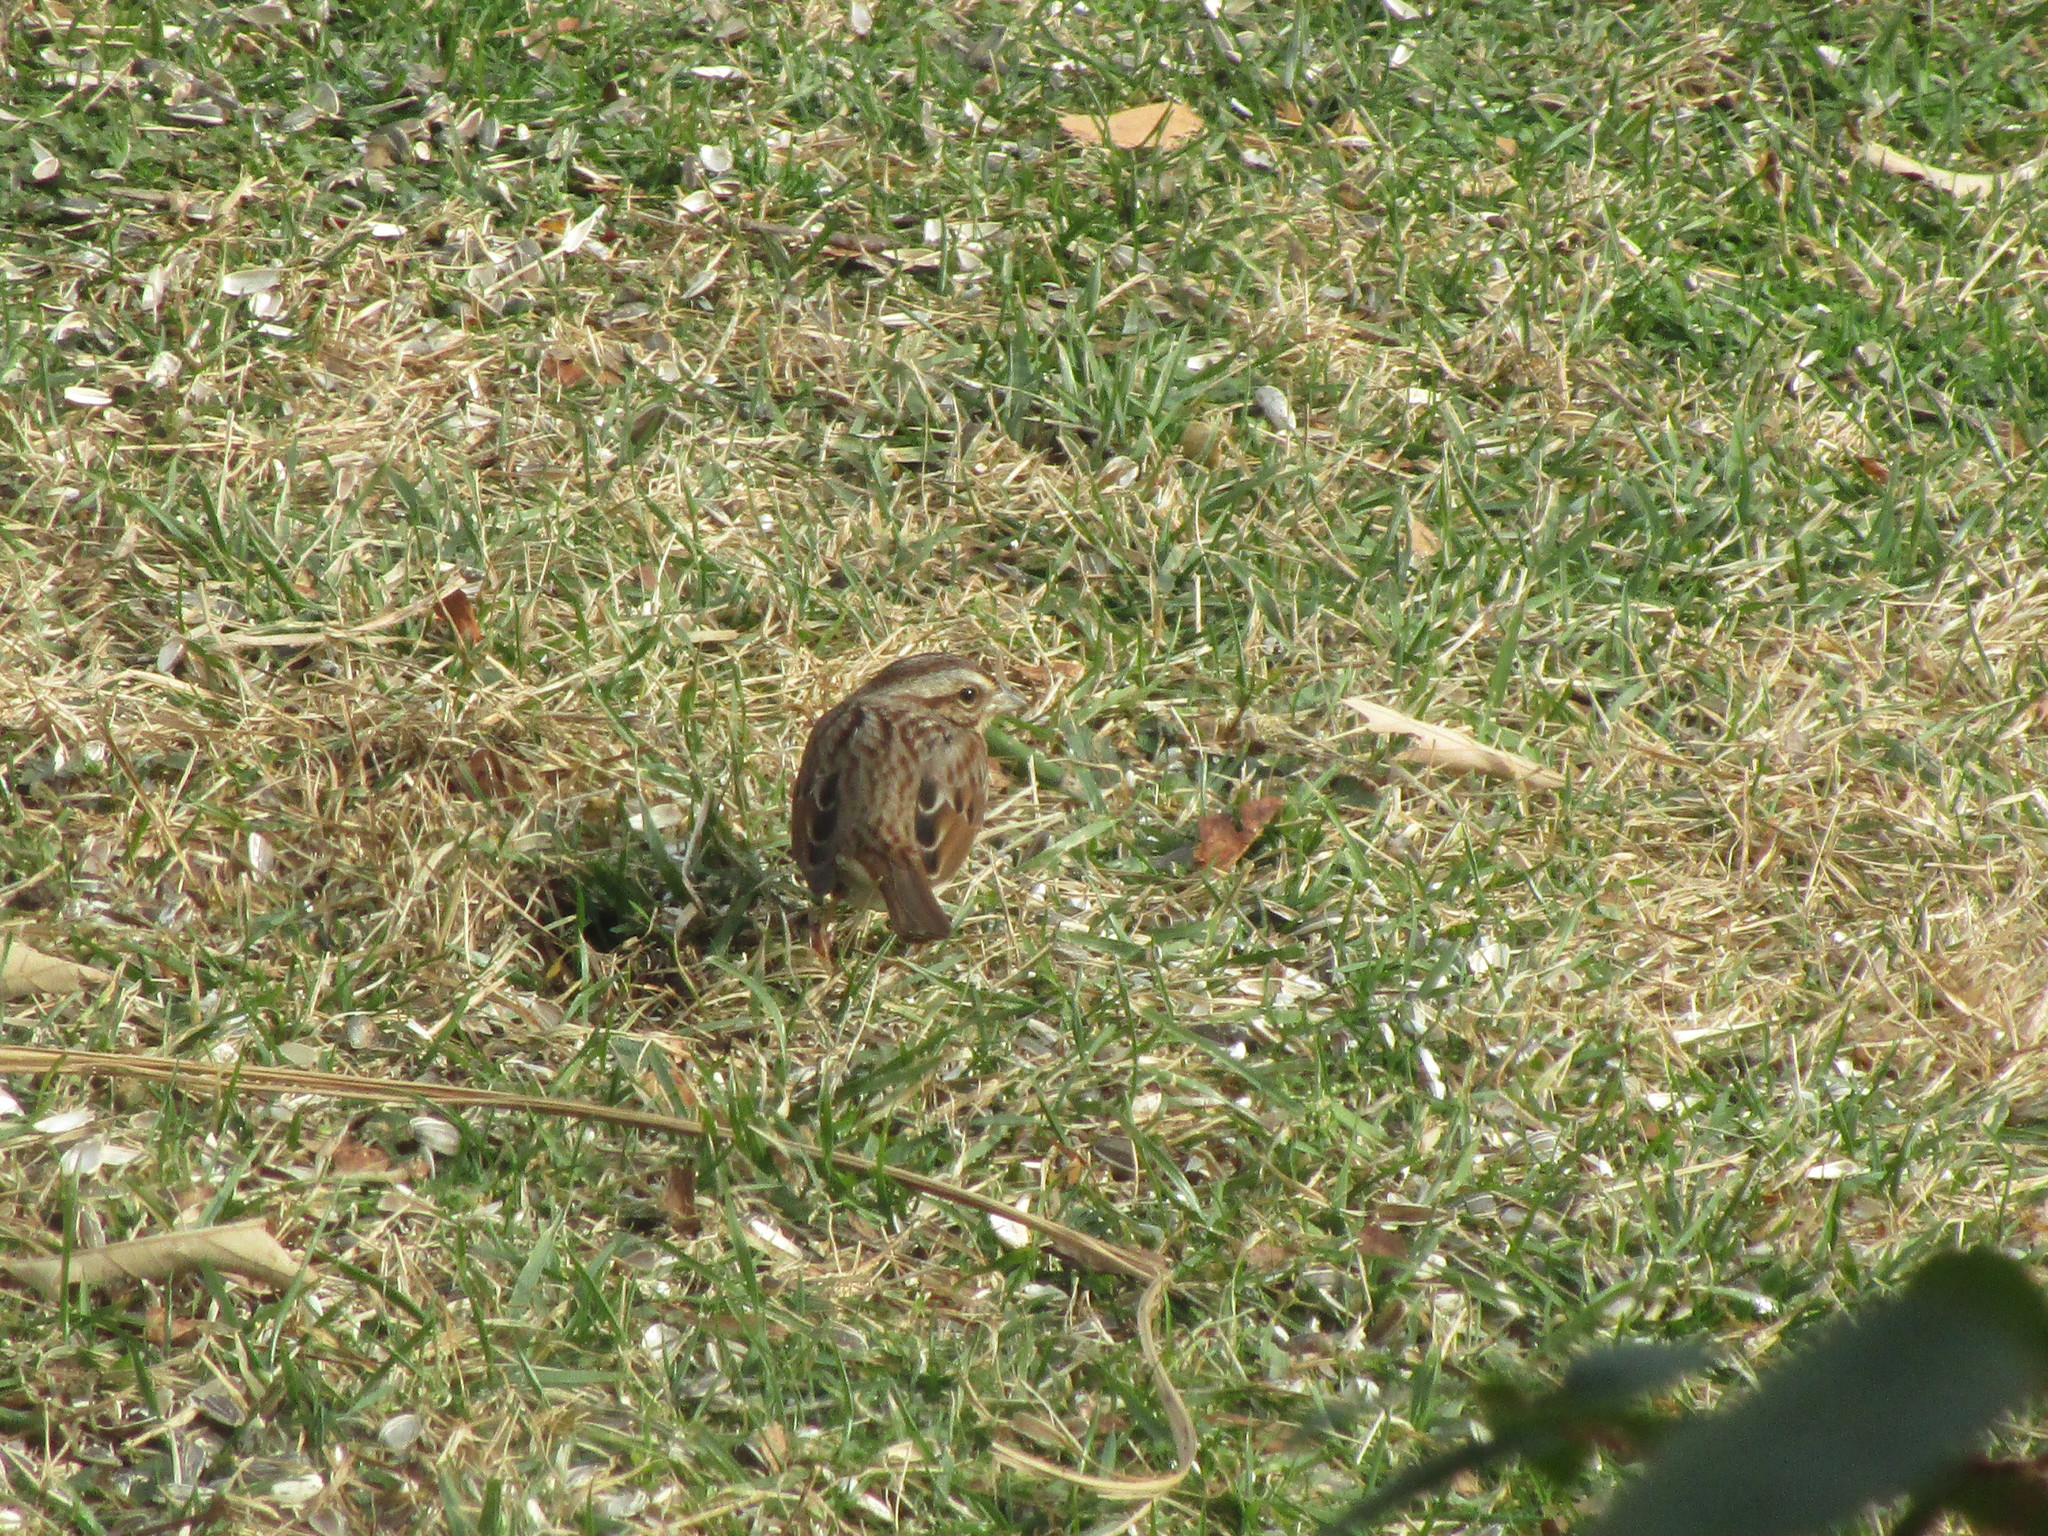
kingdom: Animalia
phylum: Chordata
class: Aves
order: Passeriformes
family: Passerellidae
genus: Melospiza
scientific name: Melospiza melodia
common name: Song sparrow
